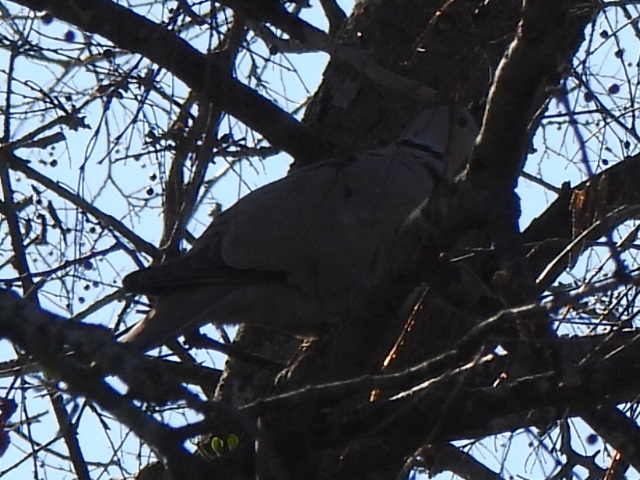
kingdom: Animalia
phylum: Chordata
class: Aves
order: Columbiformes
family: Columbidae
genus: Streptopelia
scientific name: Streptopelia decaocto
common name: Eurasian collared dove
